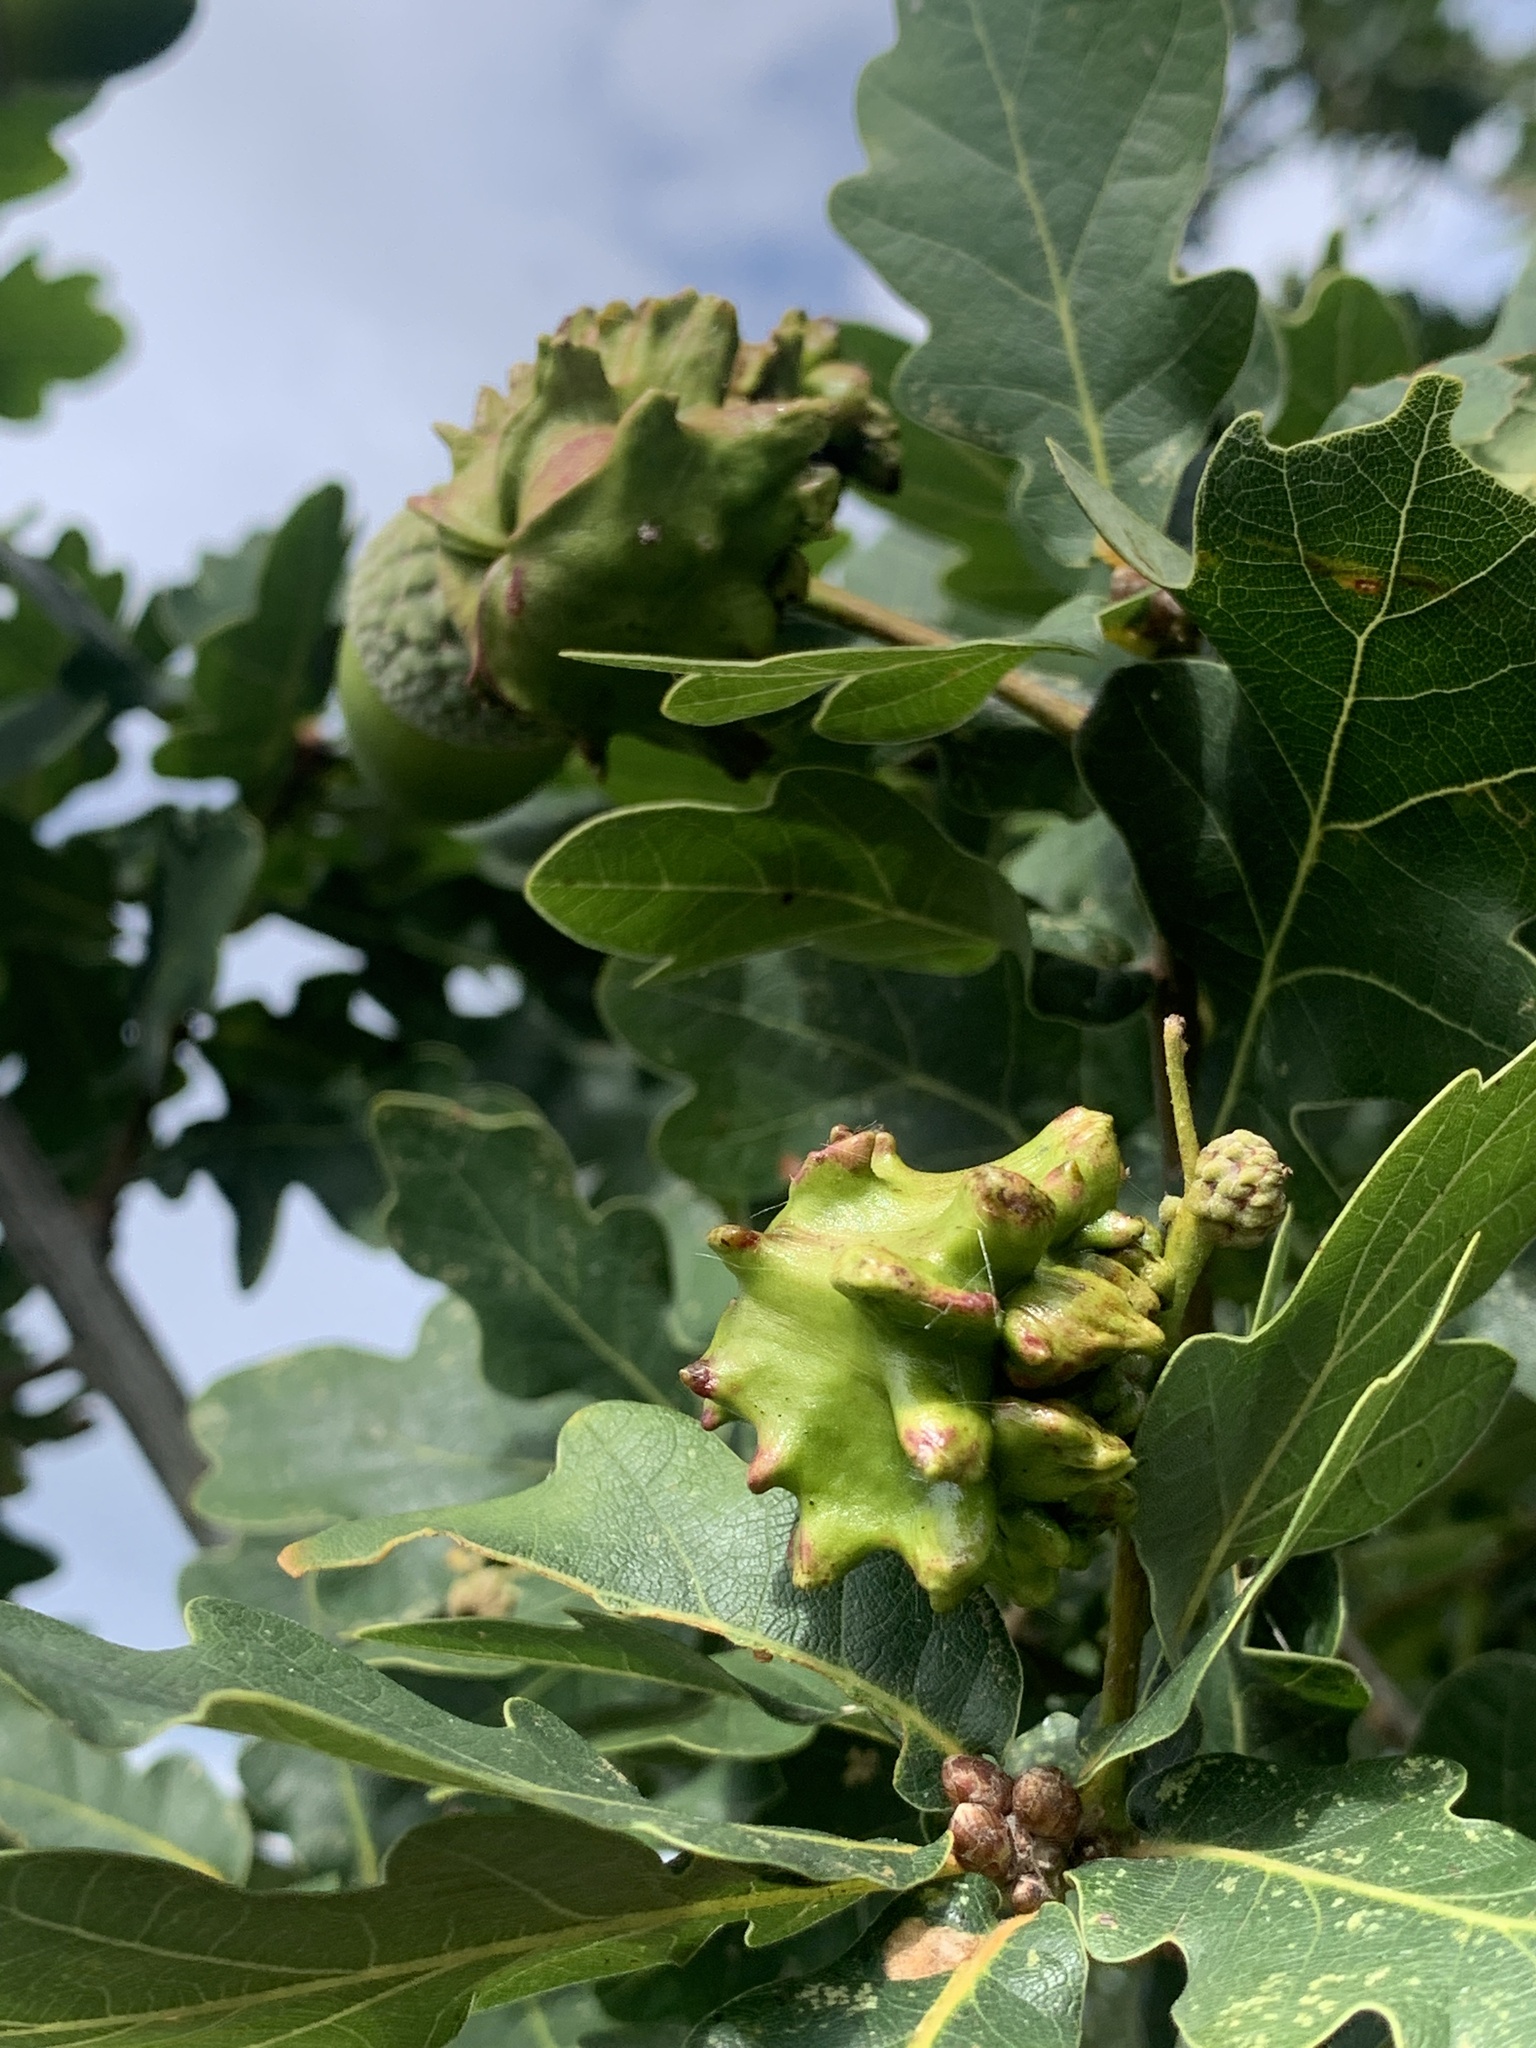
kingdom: Animalia
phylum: Arthropoda
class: Insecta
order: Hymenoptera
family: Cynipidae
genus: Andricus
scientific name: Andricus quercuscalicis
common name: Knopper gall
